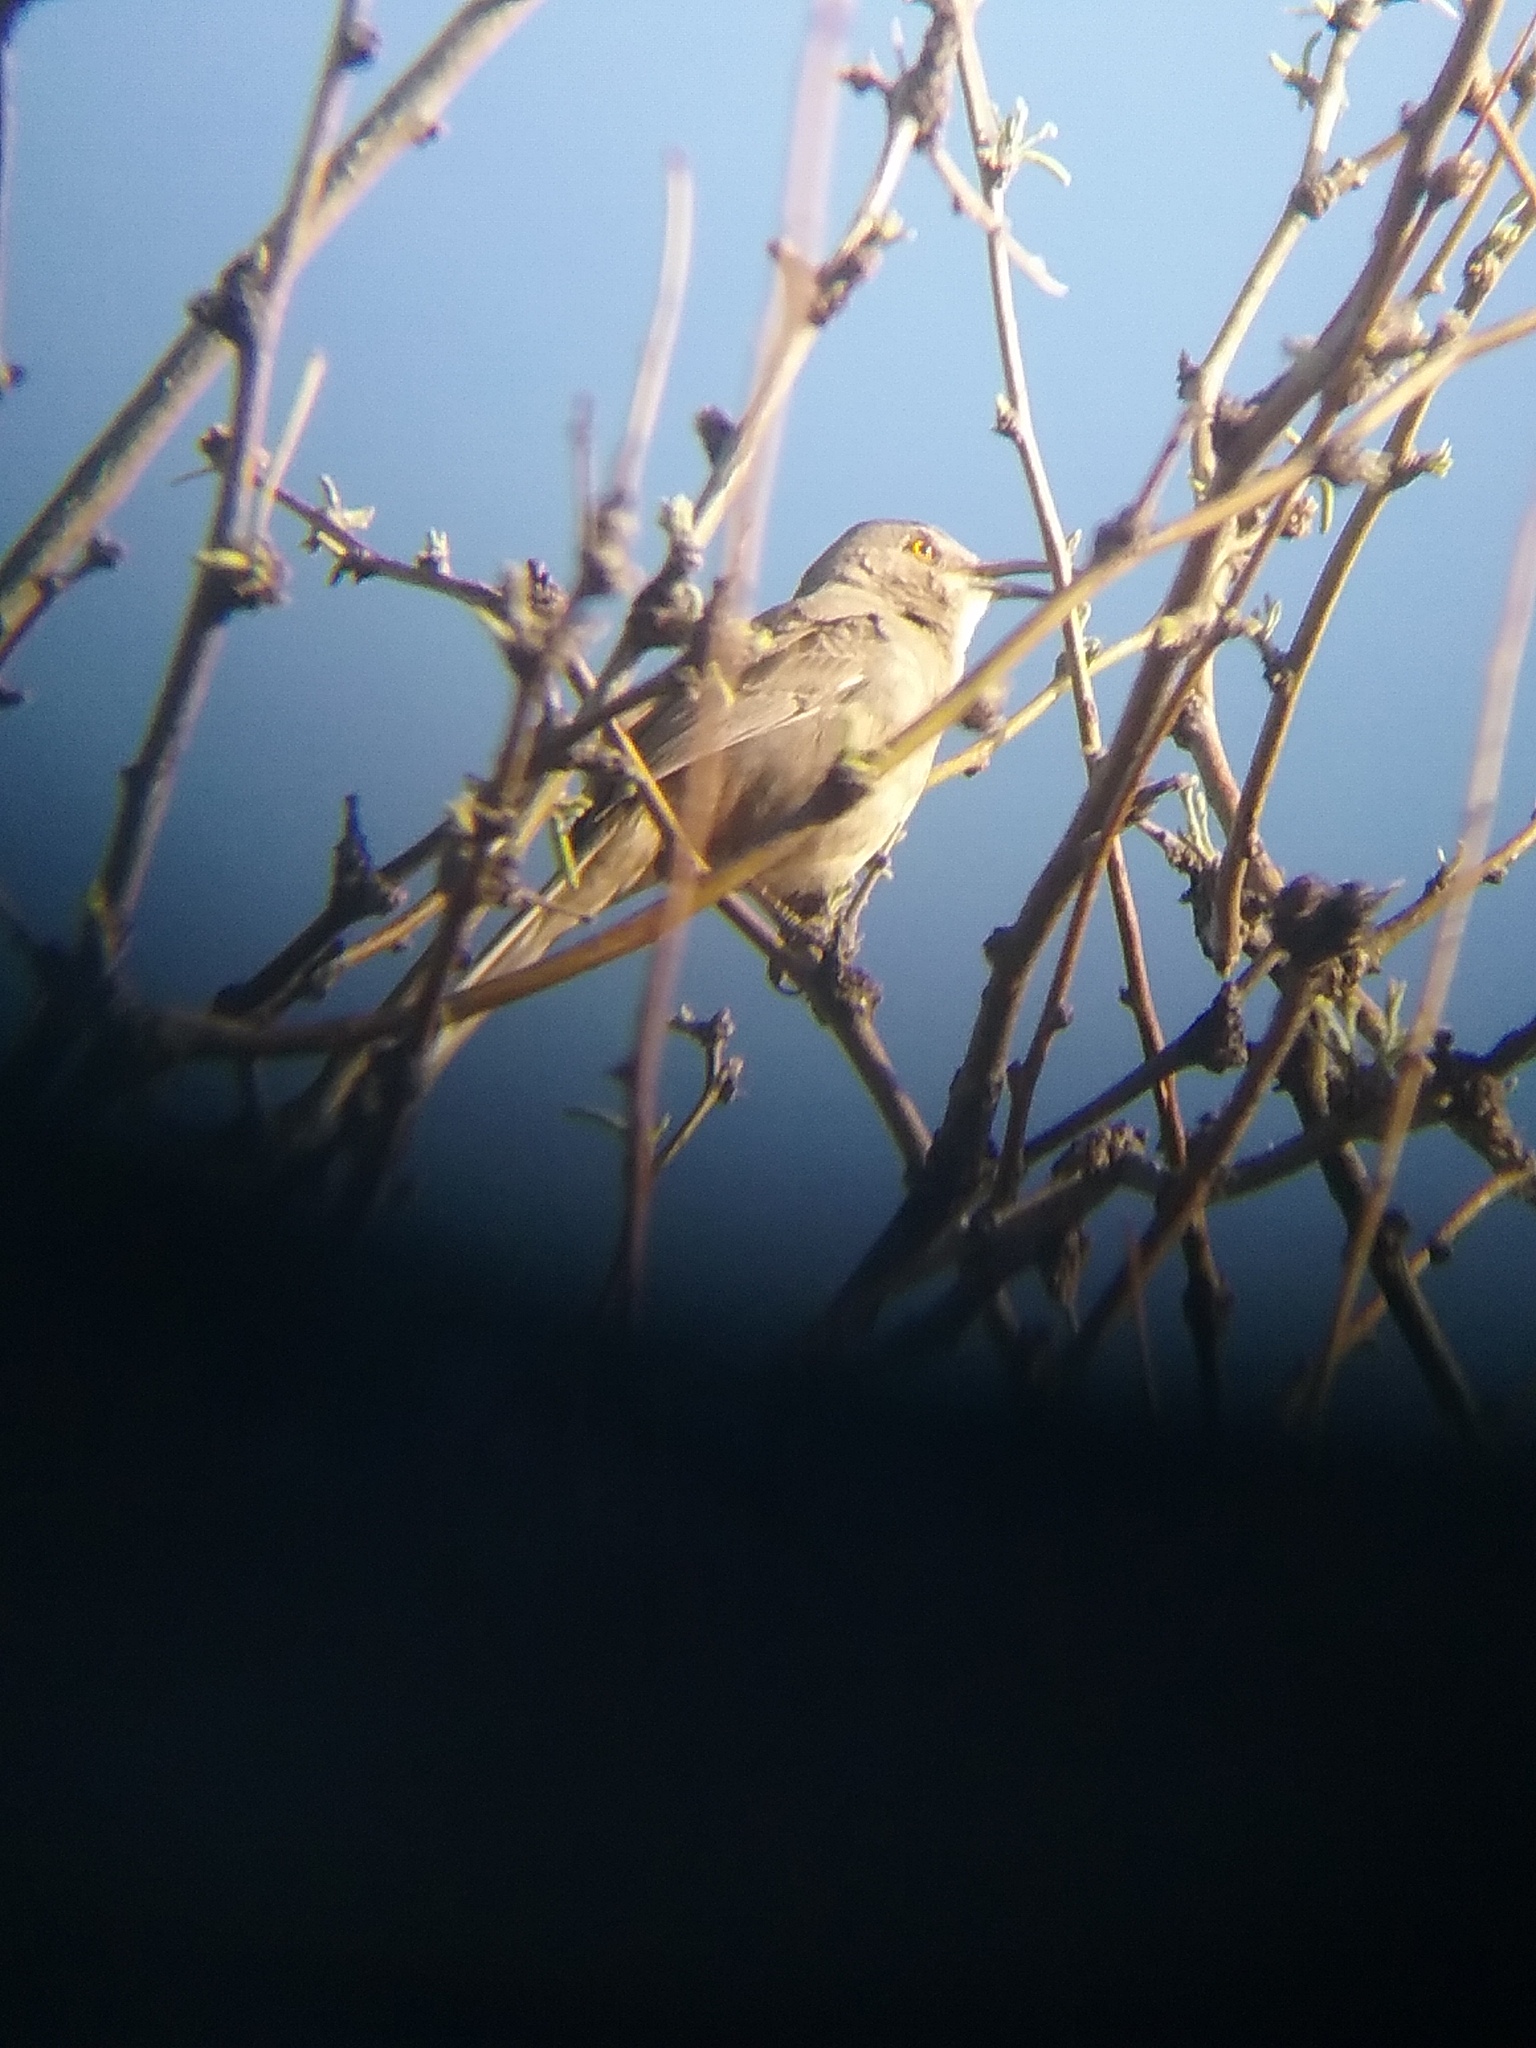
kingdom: Animalia
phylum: Chordata
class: Aves
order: Passeriformes
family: Mimidae
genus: Toxostoma
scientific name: Toxostoma curvirostre
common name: Curve-billed thrasher
